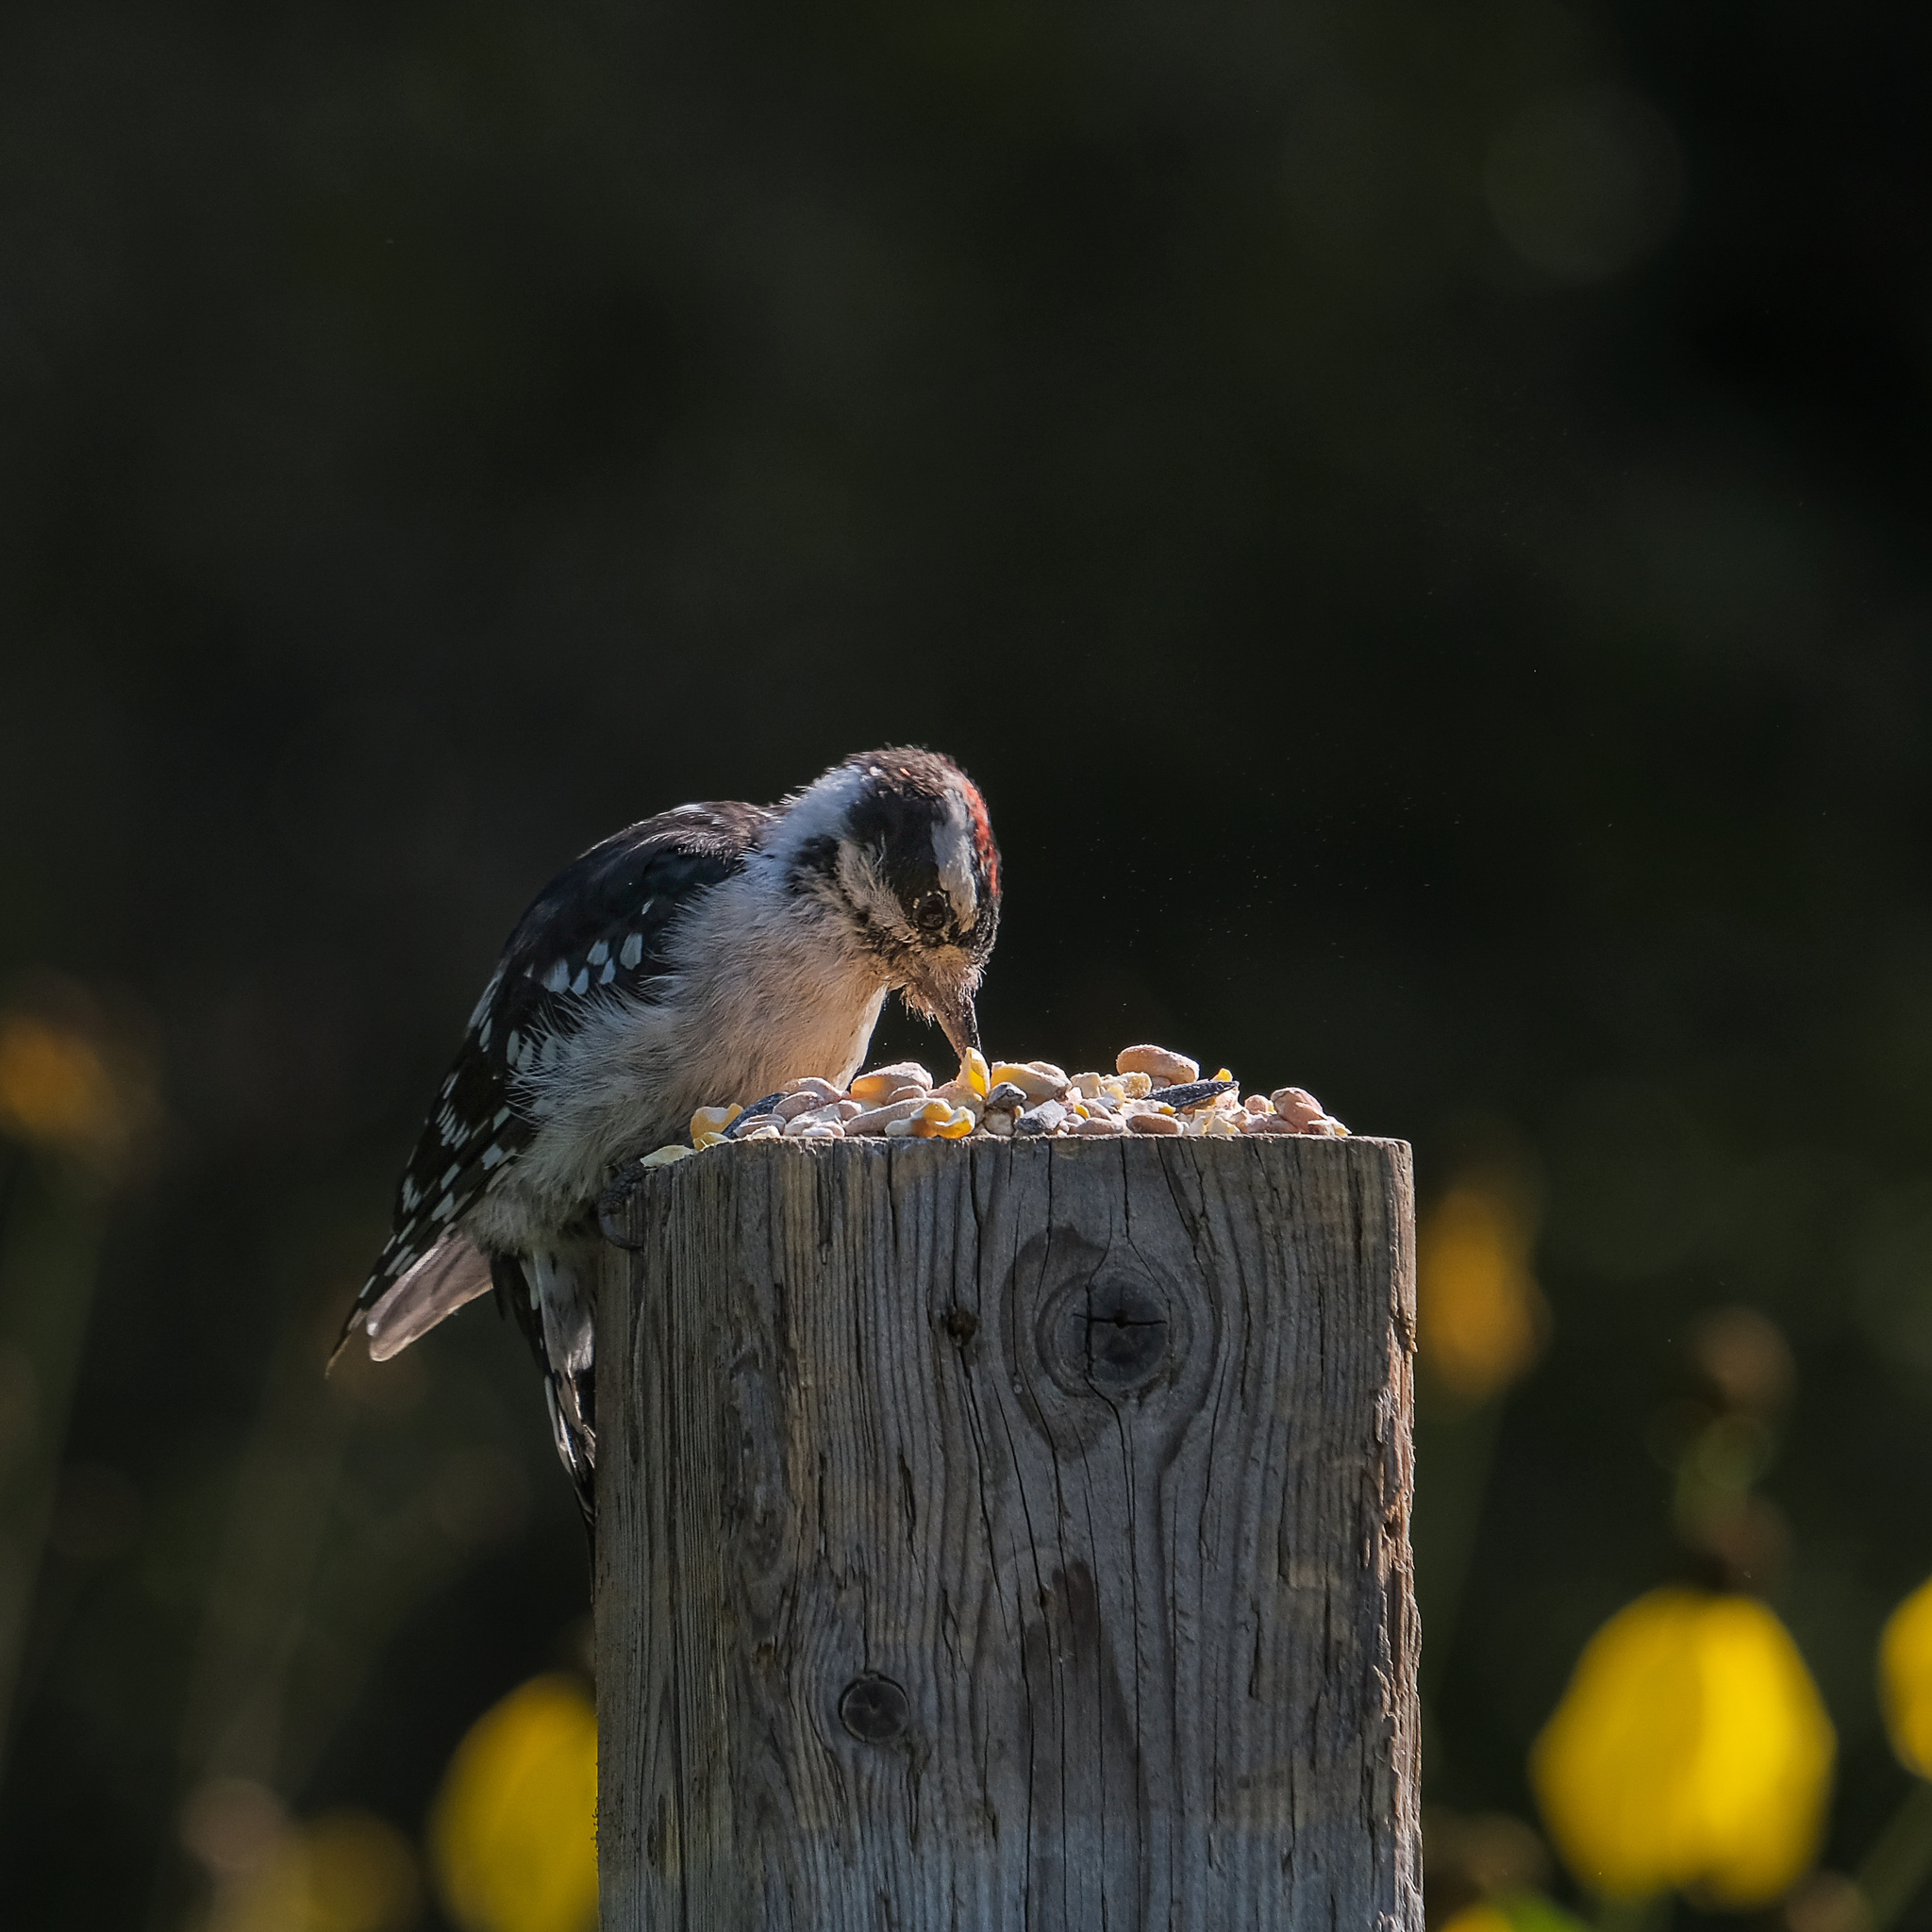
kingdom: Animalia
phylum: Chordata
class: Aves
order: Piciformes
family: Picidae
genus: Dryobates
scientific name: Dryobates pubescens
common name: Downy woodpecker
